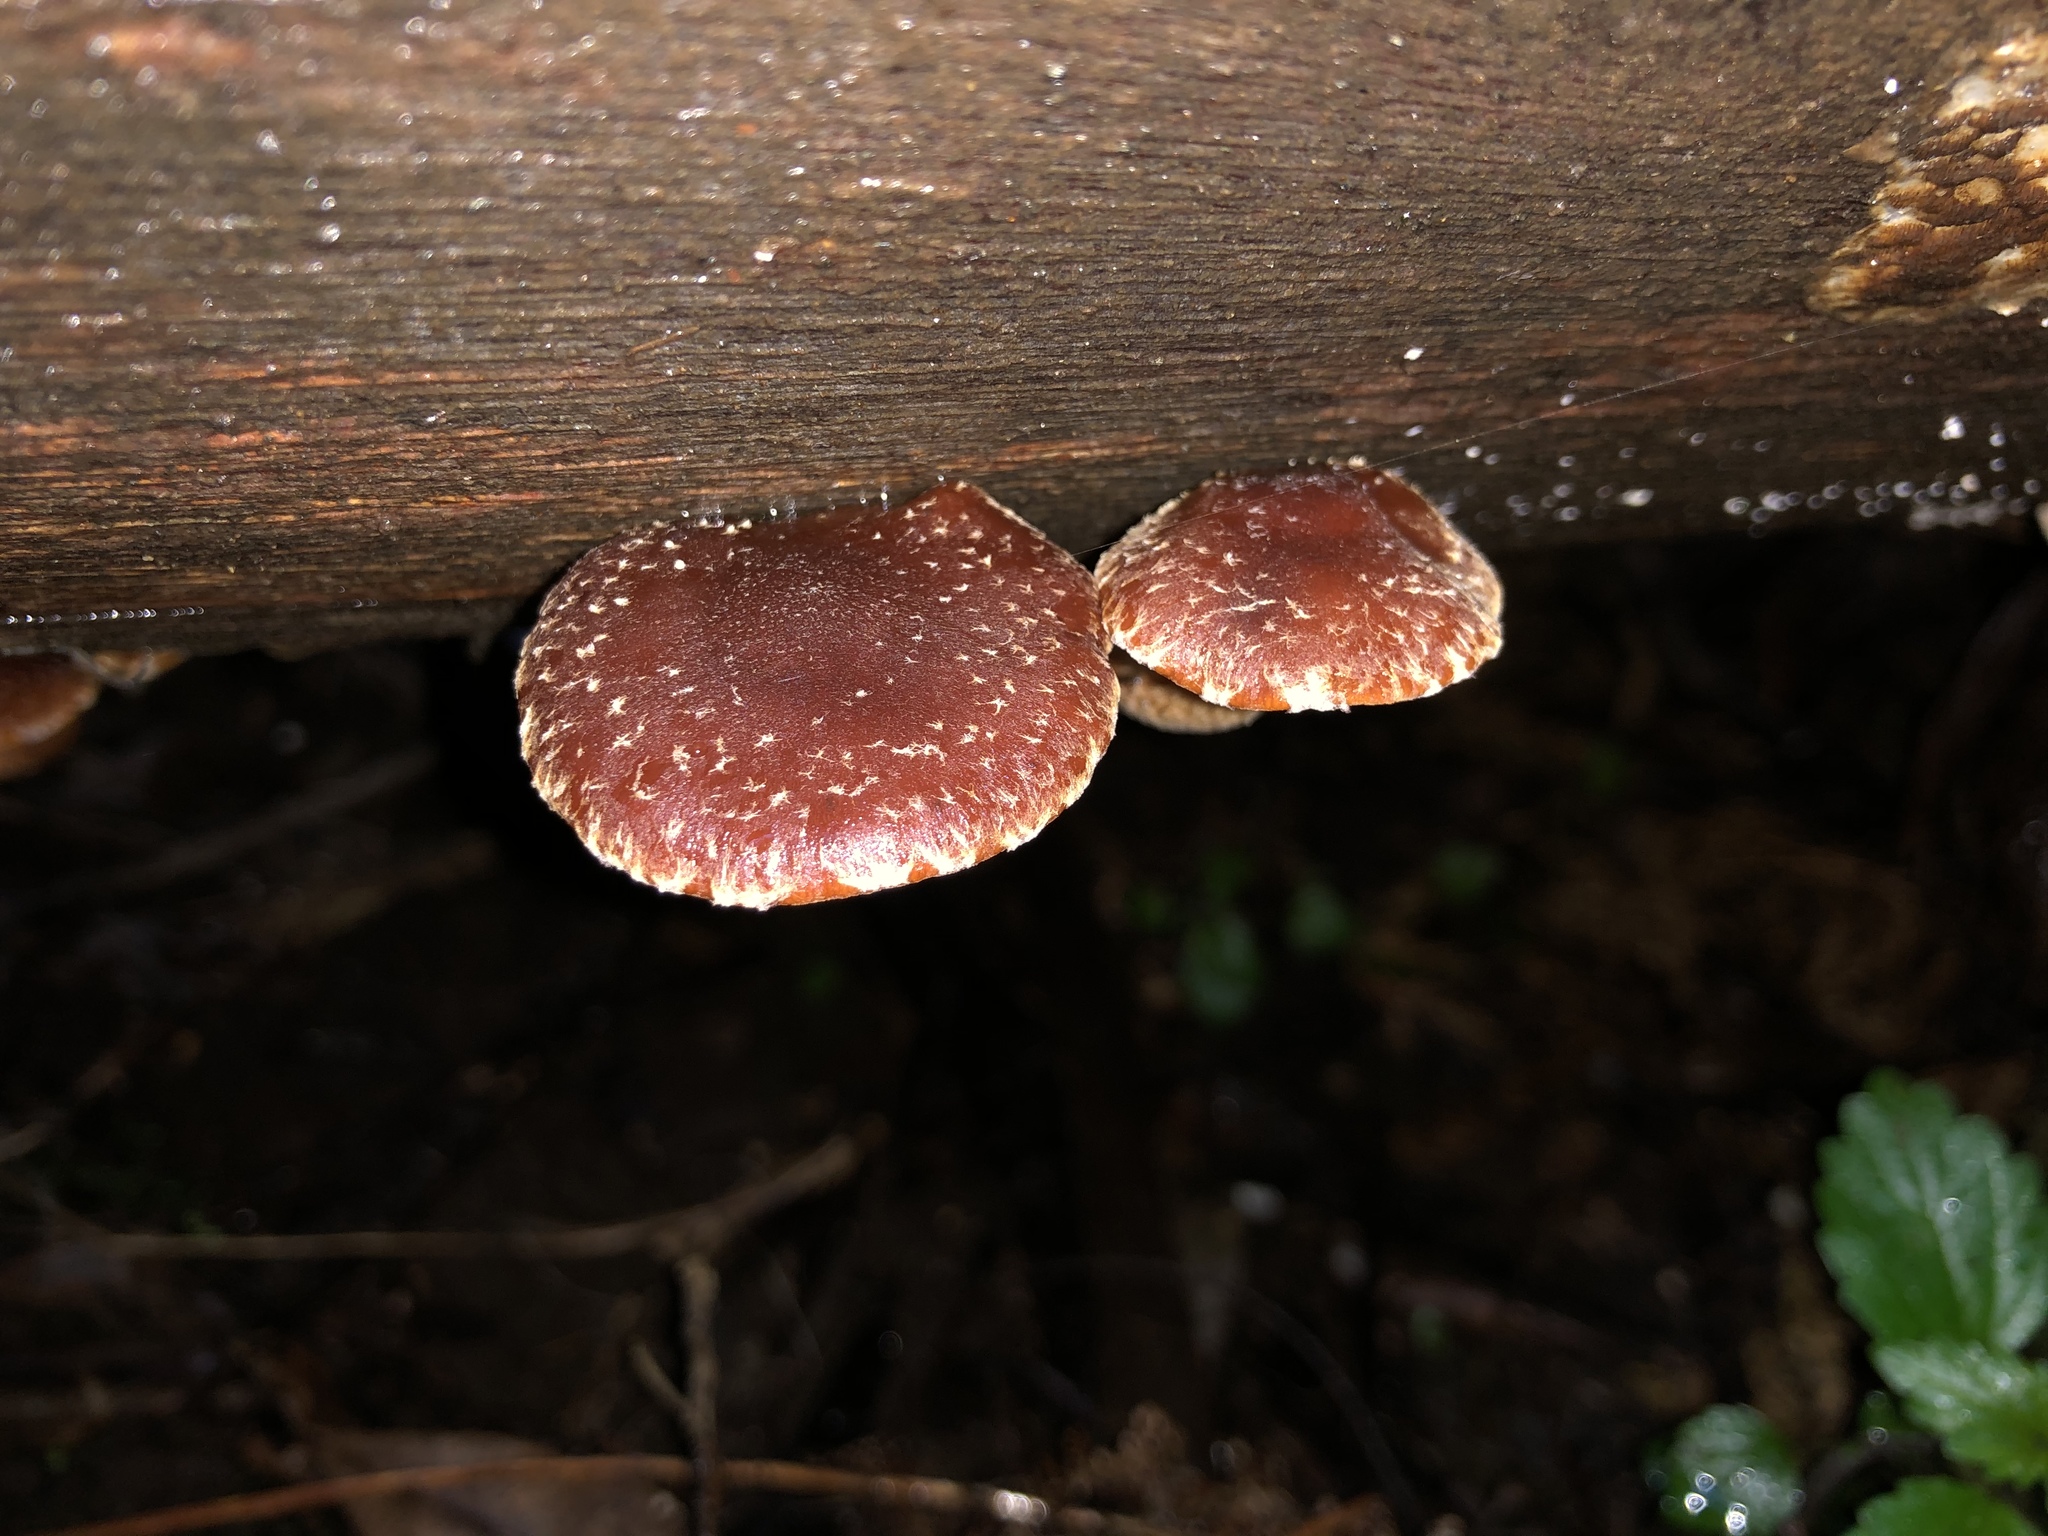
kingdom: Fungi
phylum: Basidiomycota
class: Agaricomycetes
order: Agaricales
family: Strophariaceae
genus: Hypholoma
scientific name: Hypholoma brunneum
